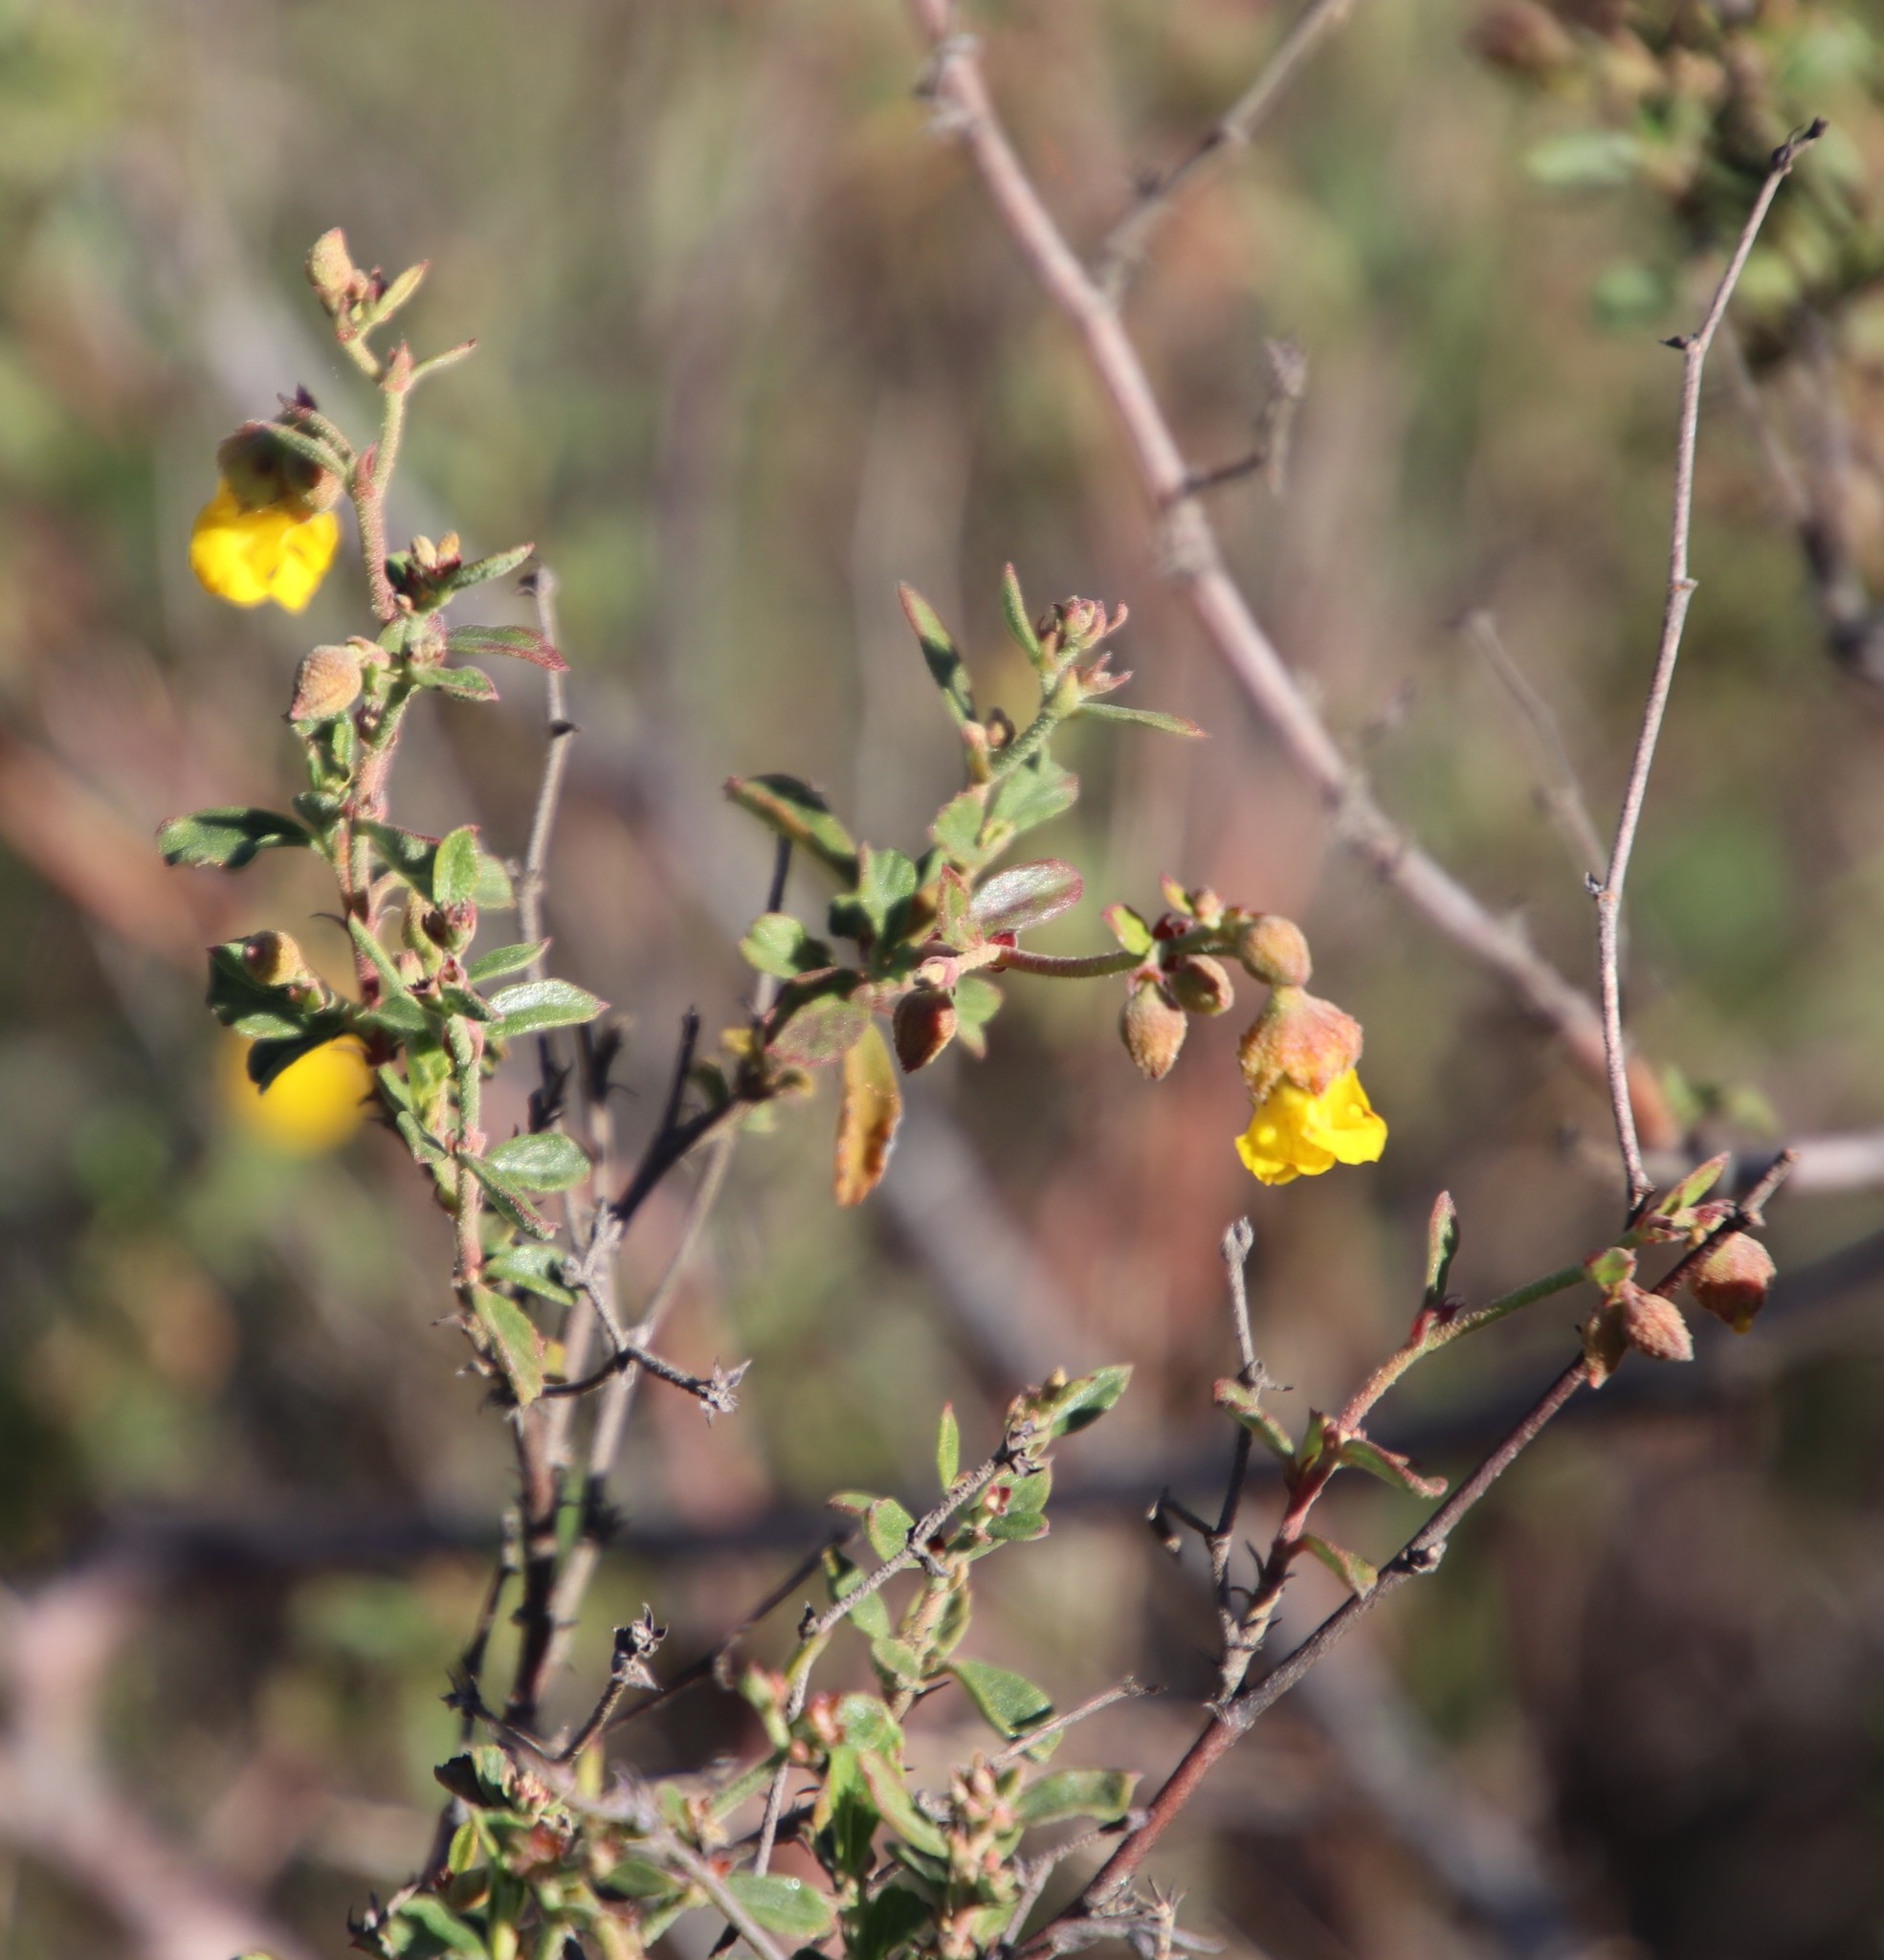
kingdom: Plantae
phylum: Tracheophyta
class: Magnoliopsida
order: Malvales
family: Malvaceae
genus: Hermannia
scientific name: Hermannia multiflora
